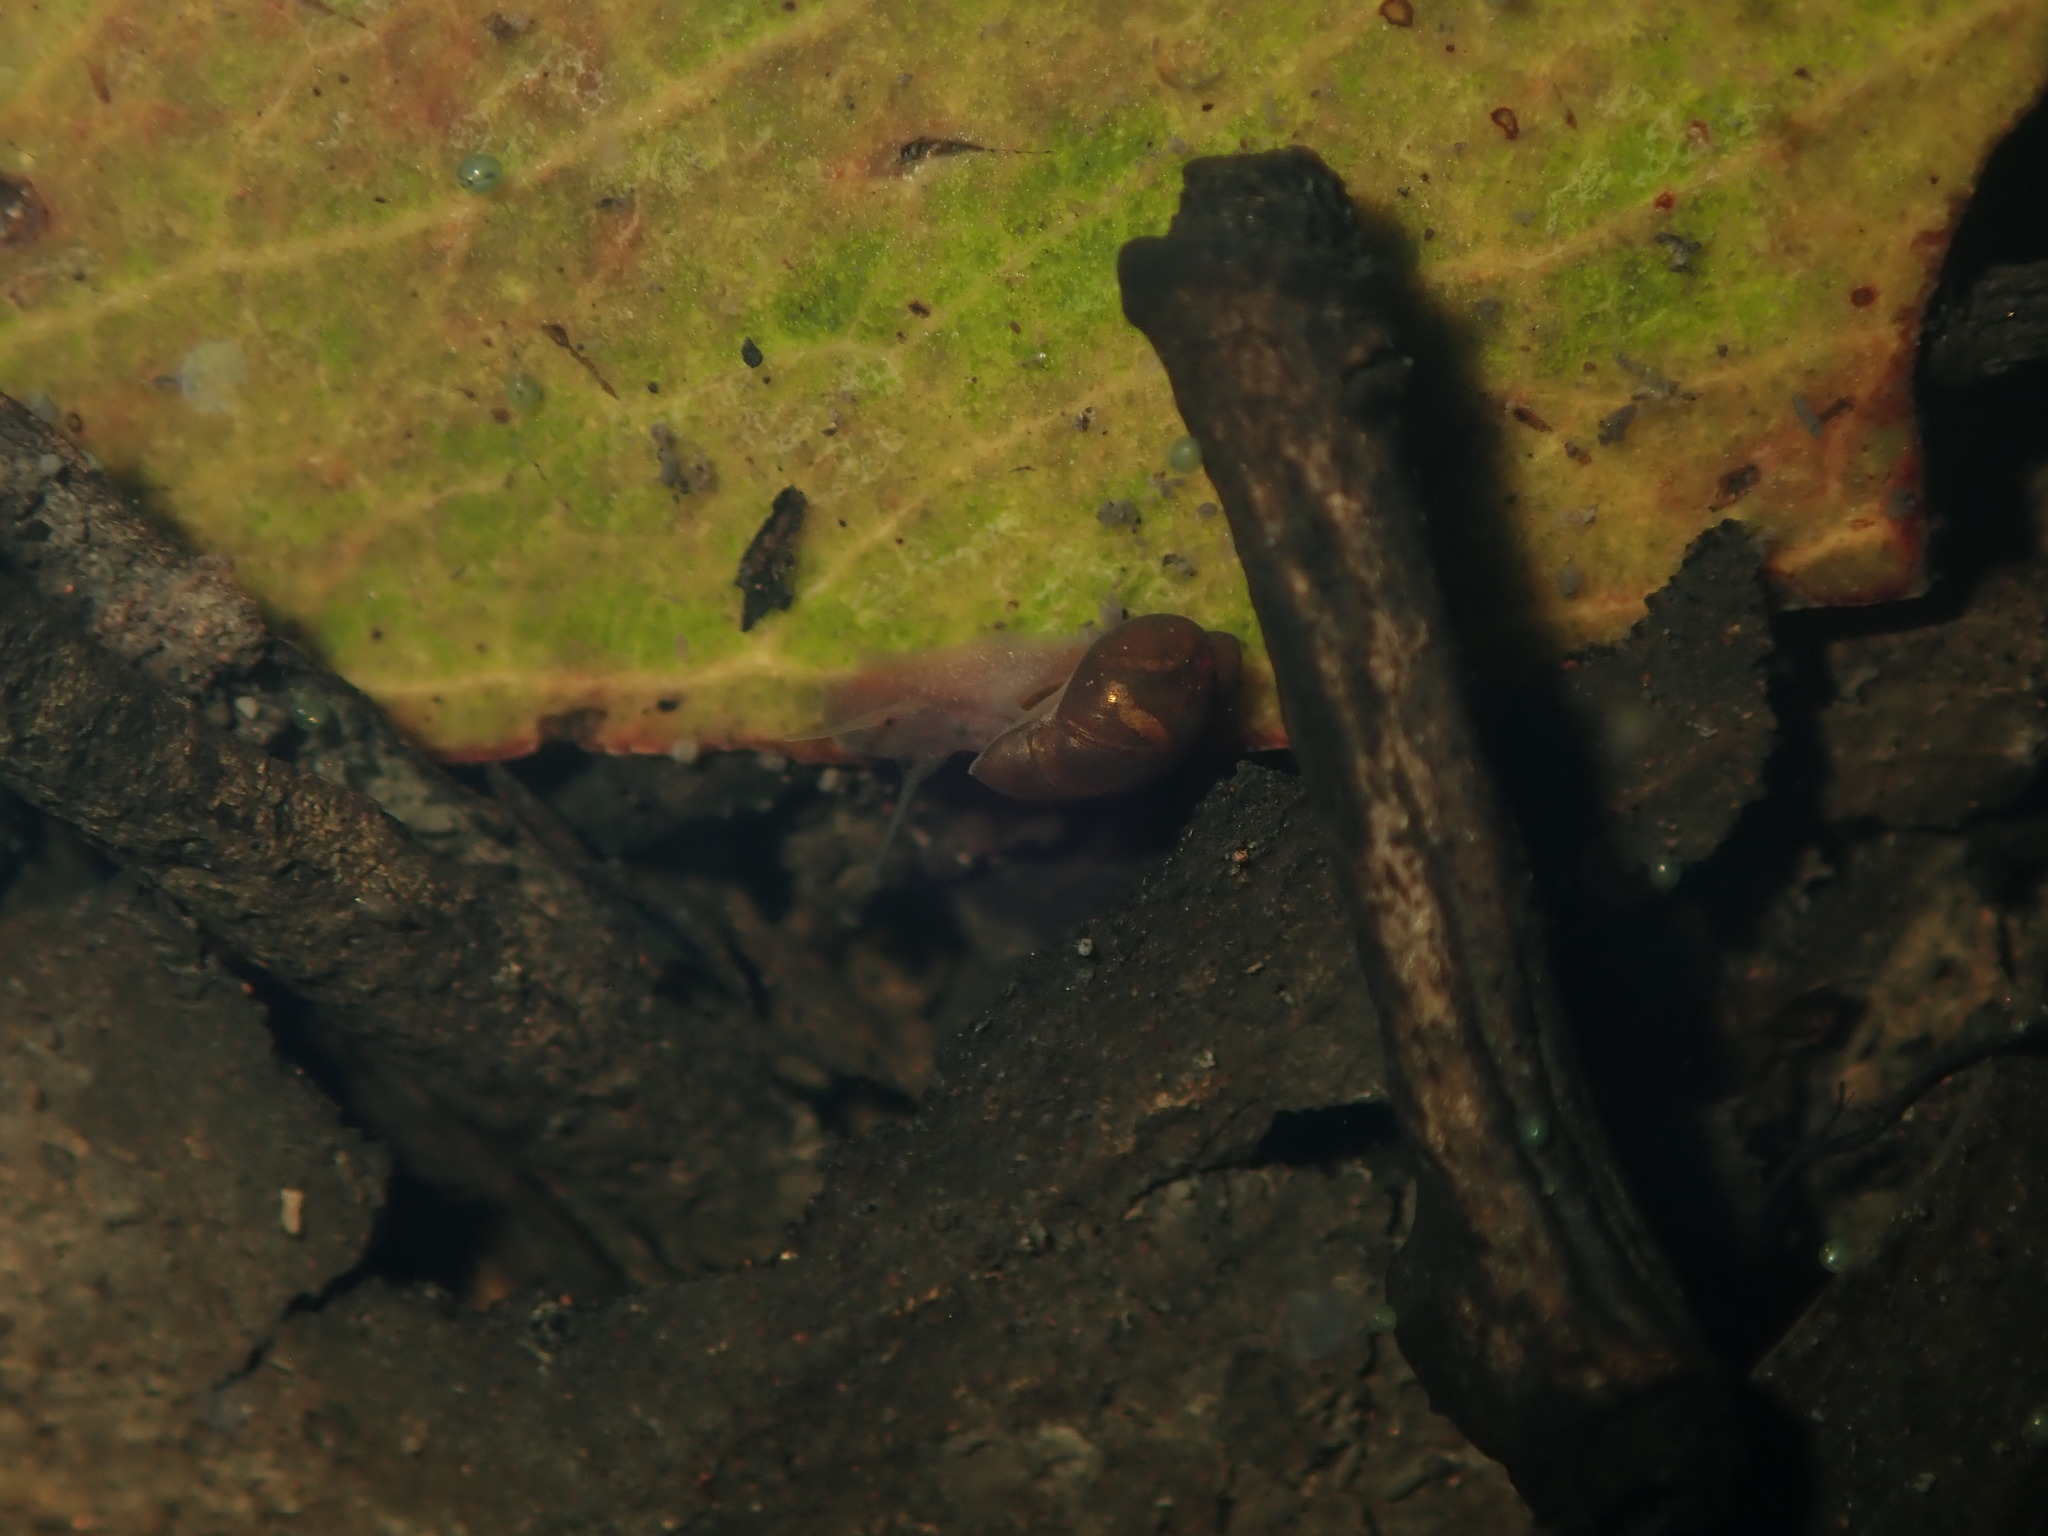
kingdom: Animalia
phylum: Mollusca
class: Gastropoda
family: Planorbidae
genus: Isidorella
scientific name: Isidorella hainesii
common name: Haine’s pouch snail
